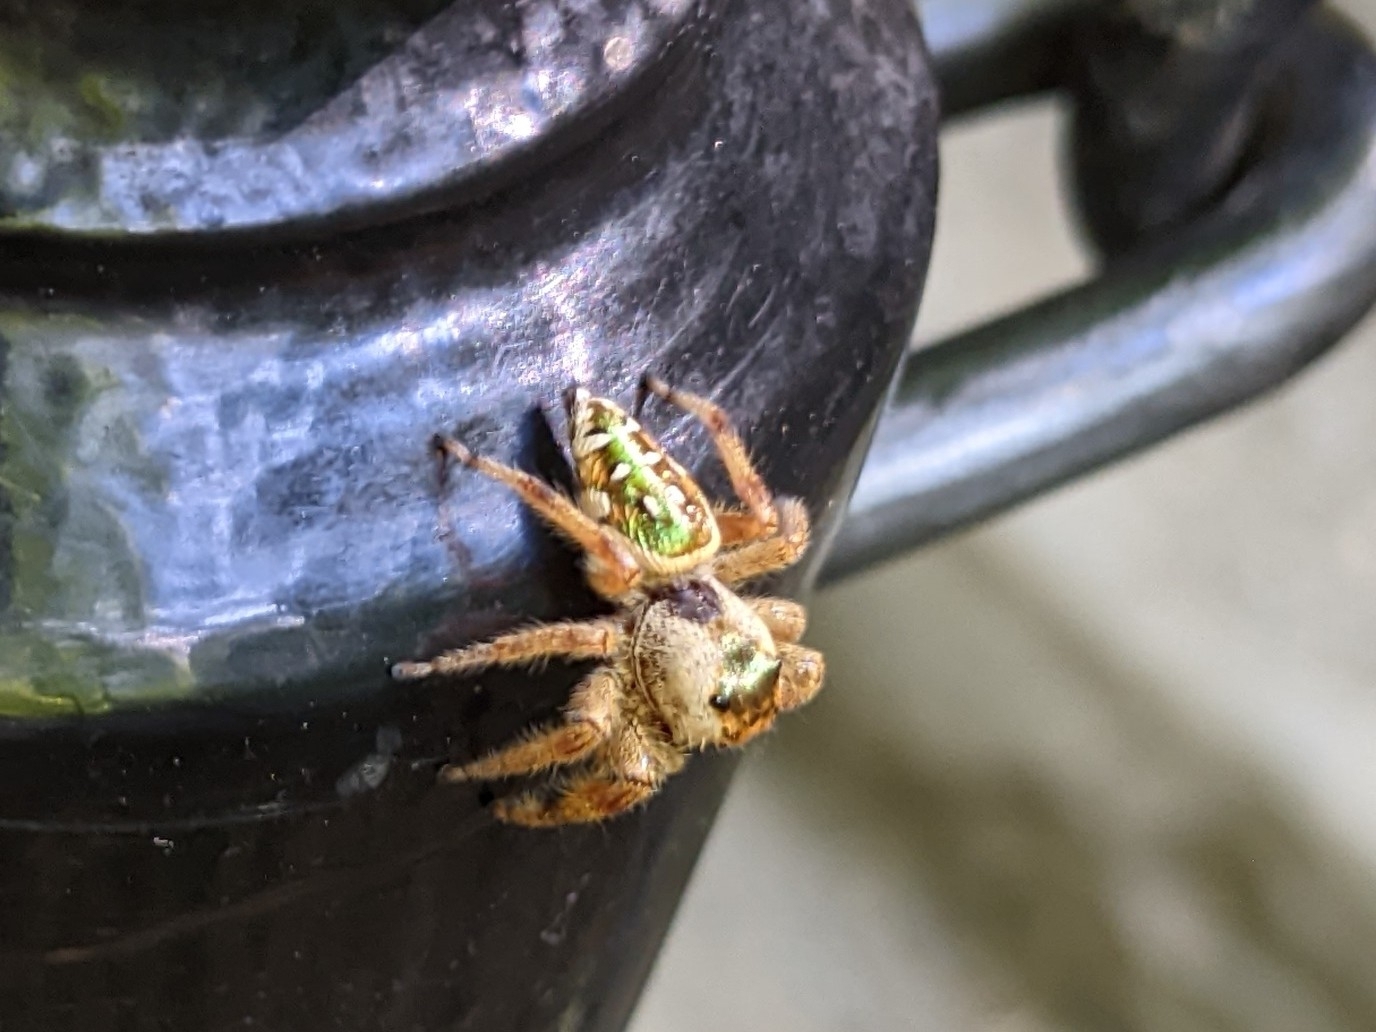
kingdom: Animalia
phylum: Arthropoda
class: Arachnida
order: Araneae
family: Salticidae
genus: Paraphidippus
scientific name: Paraphidippus aurantius
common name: Jumping spiders
